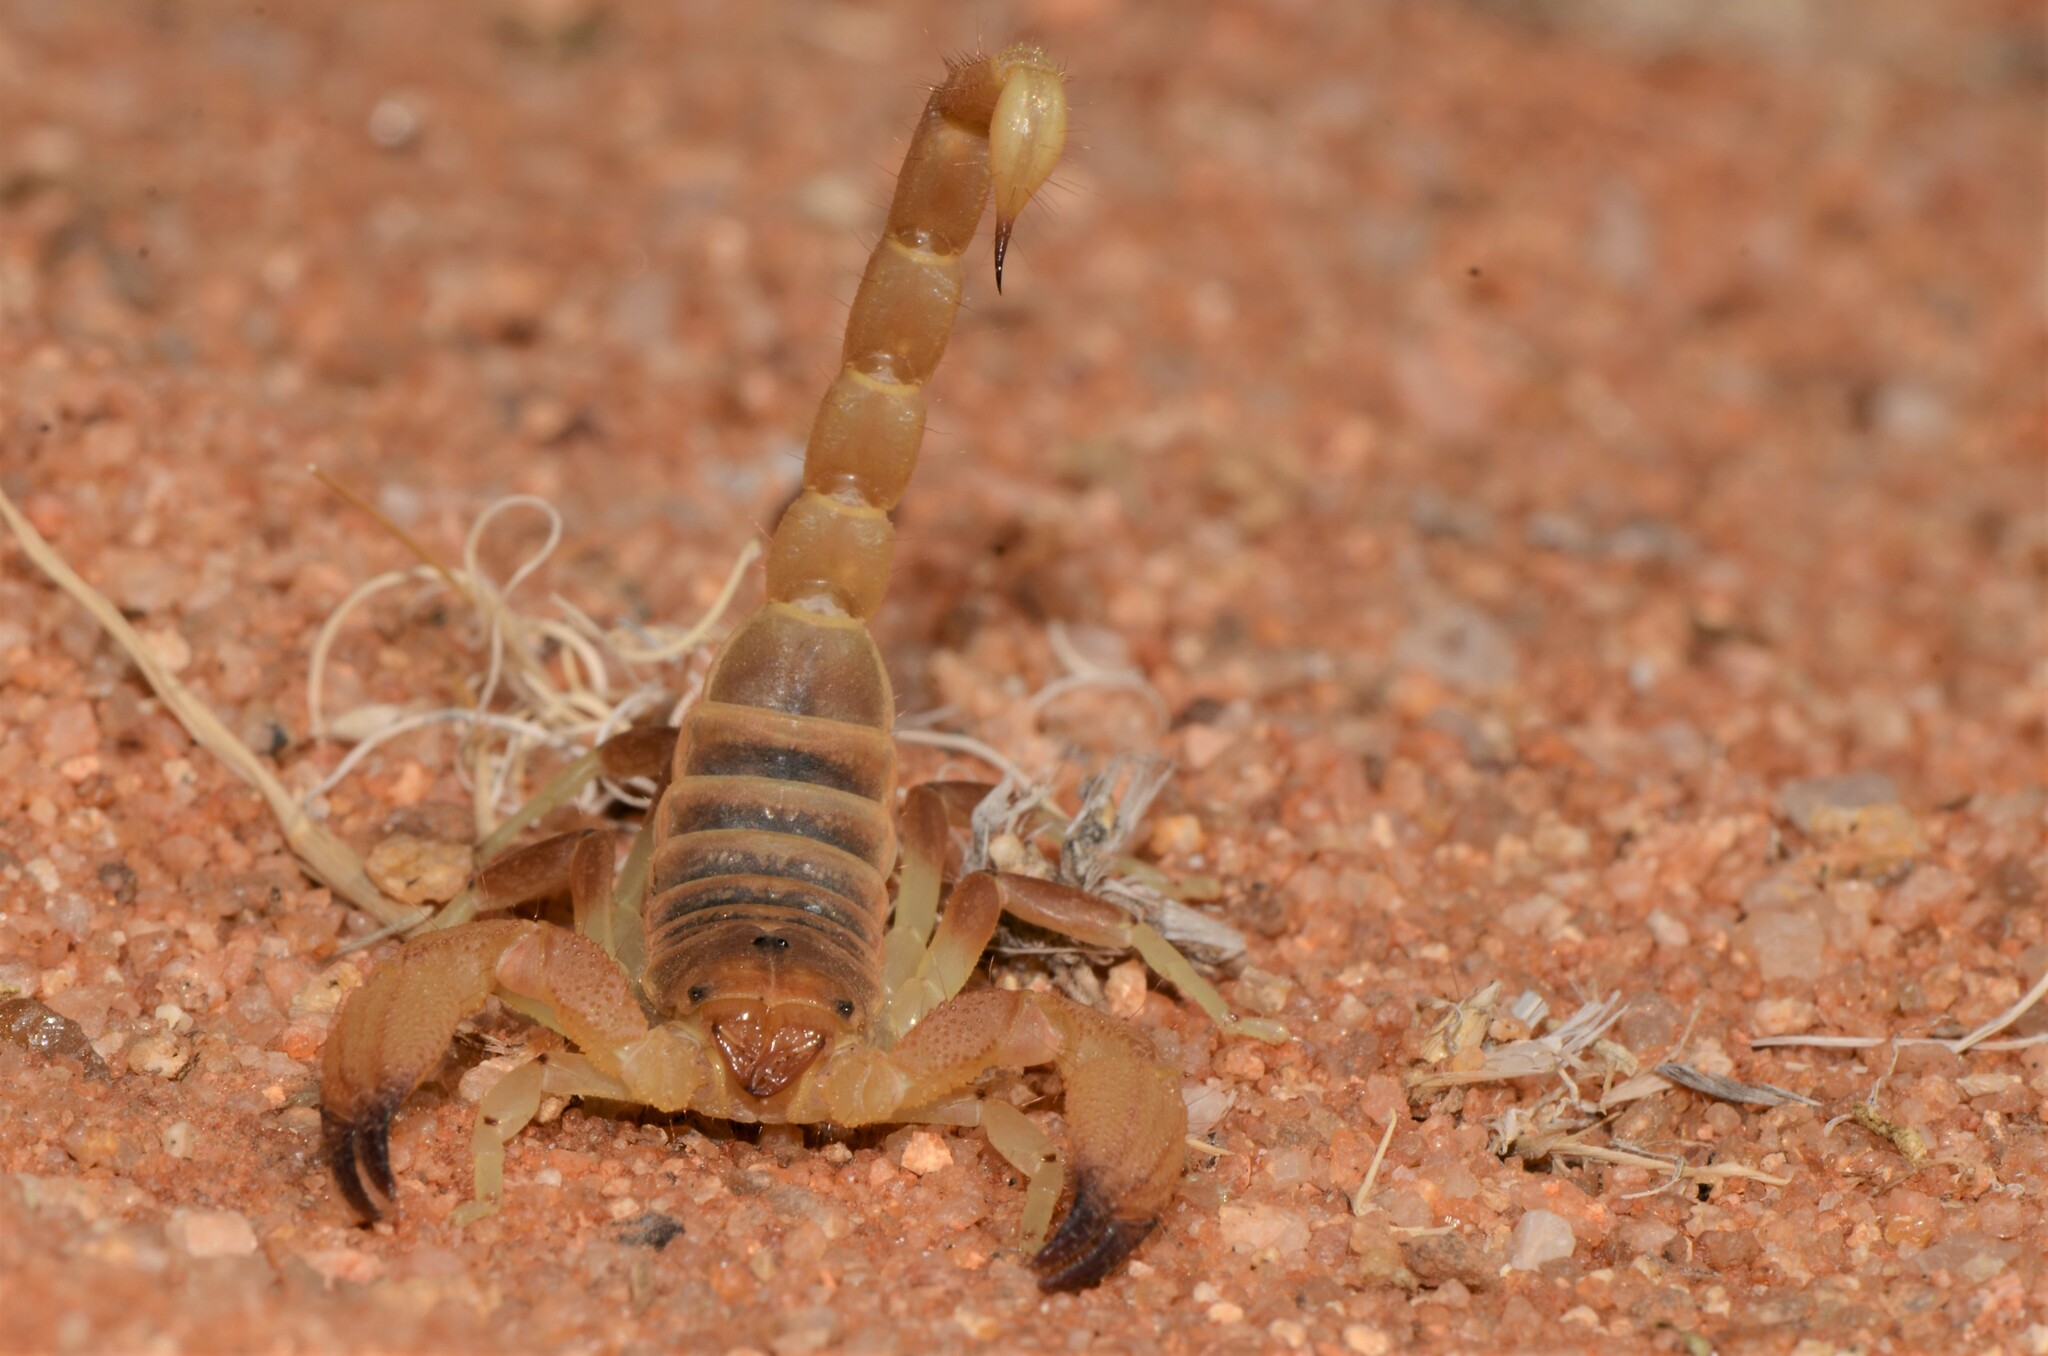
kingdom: Animalia
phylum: Arthropoda
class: Arachnida
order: Scorpiones
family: Scorpionidae
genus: Opistophthalmus
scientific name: Opistophthalmus lornae
